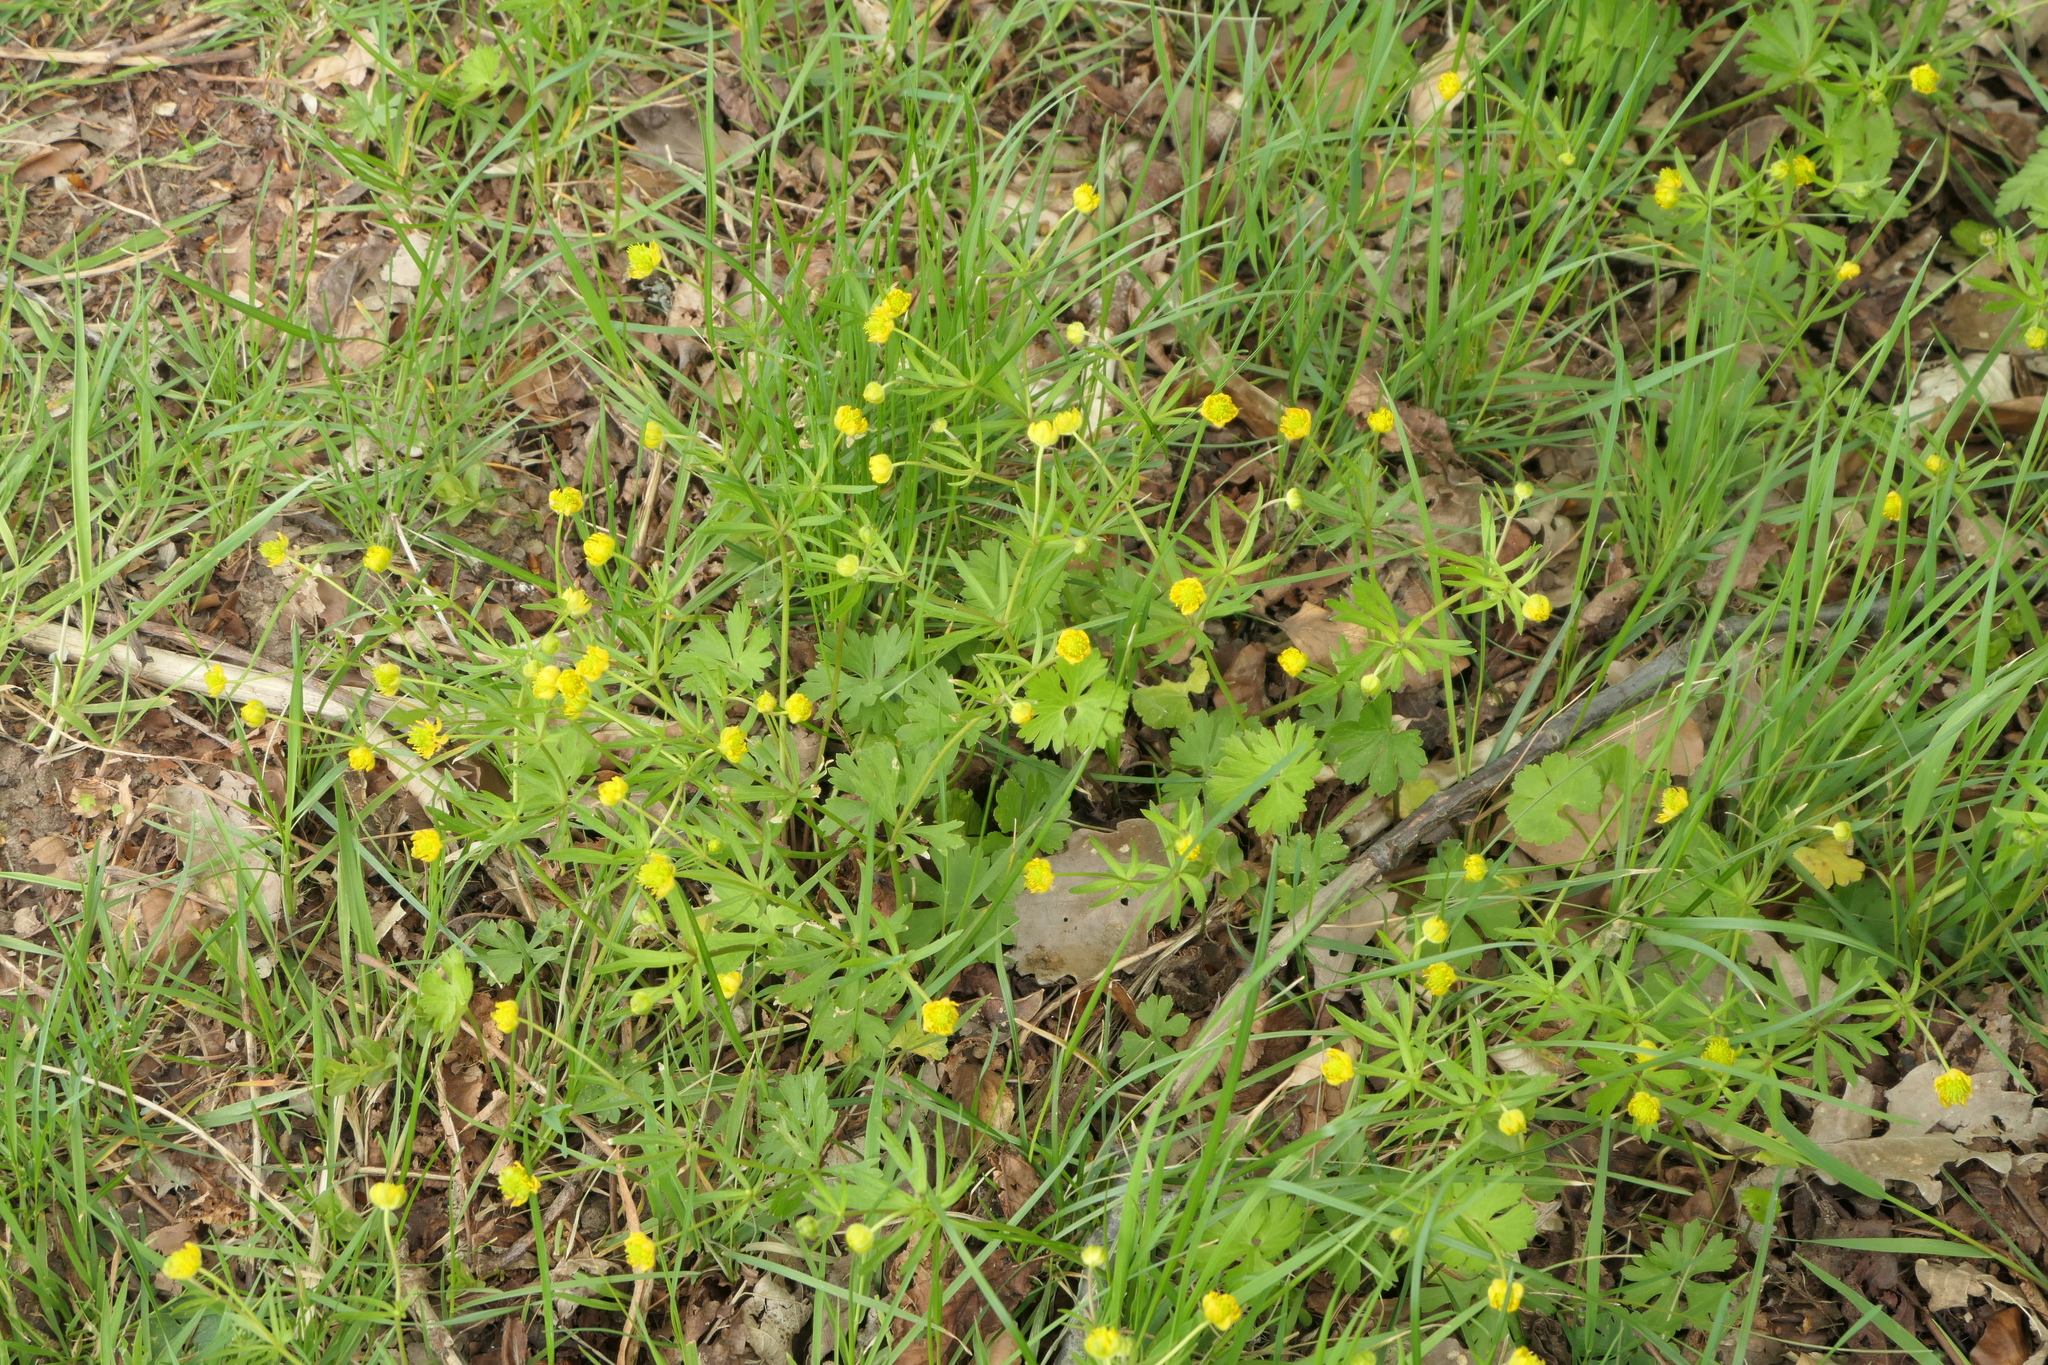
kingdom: Plantae
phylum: Tracheophyta
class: Magnoliopsida
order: Ranunculales
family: Ranunculaceae
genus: Ranunculus
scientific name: Ranunculus auricomus
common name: Goldilocks buttercup
